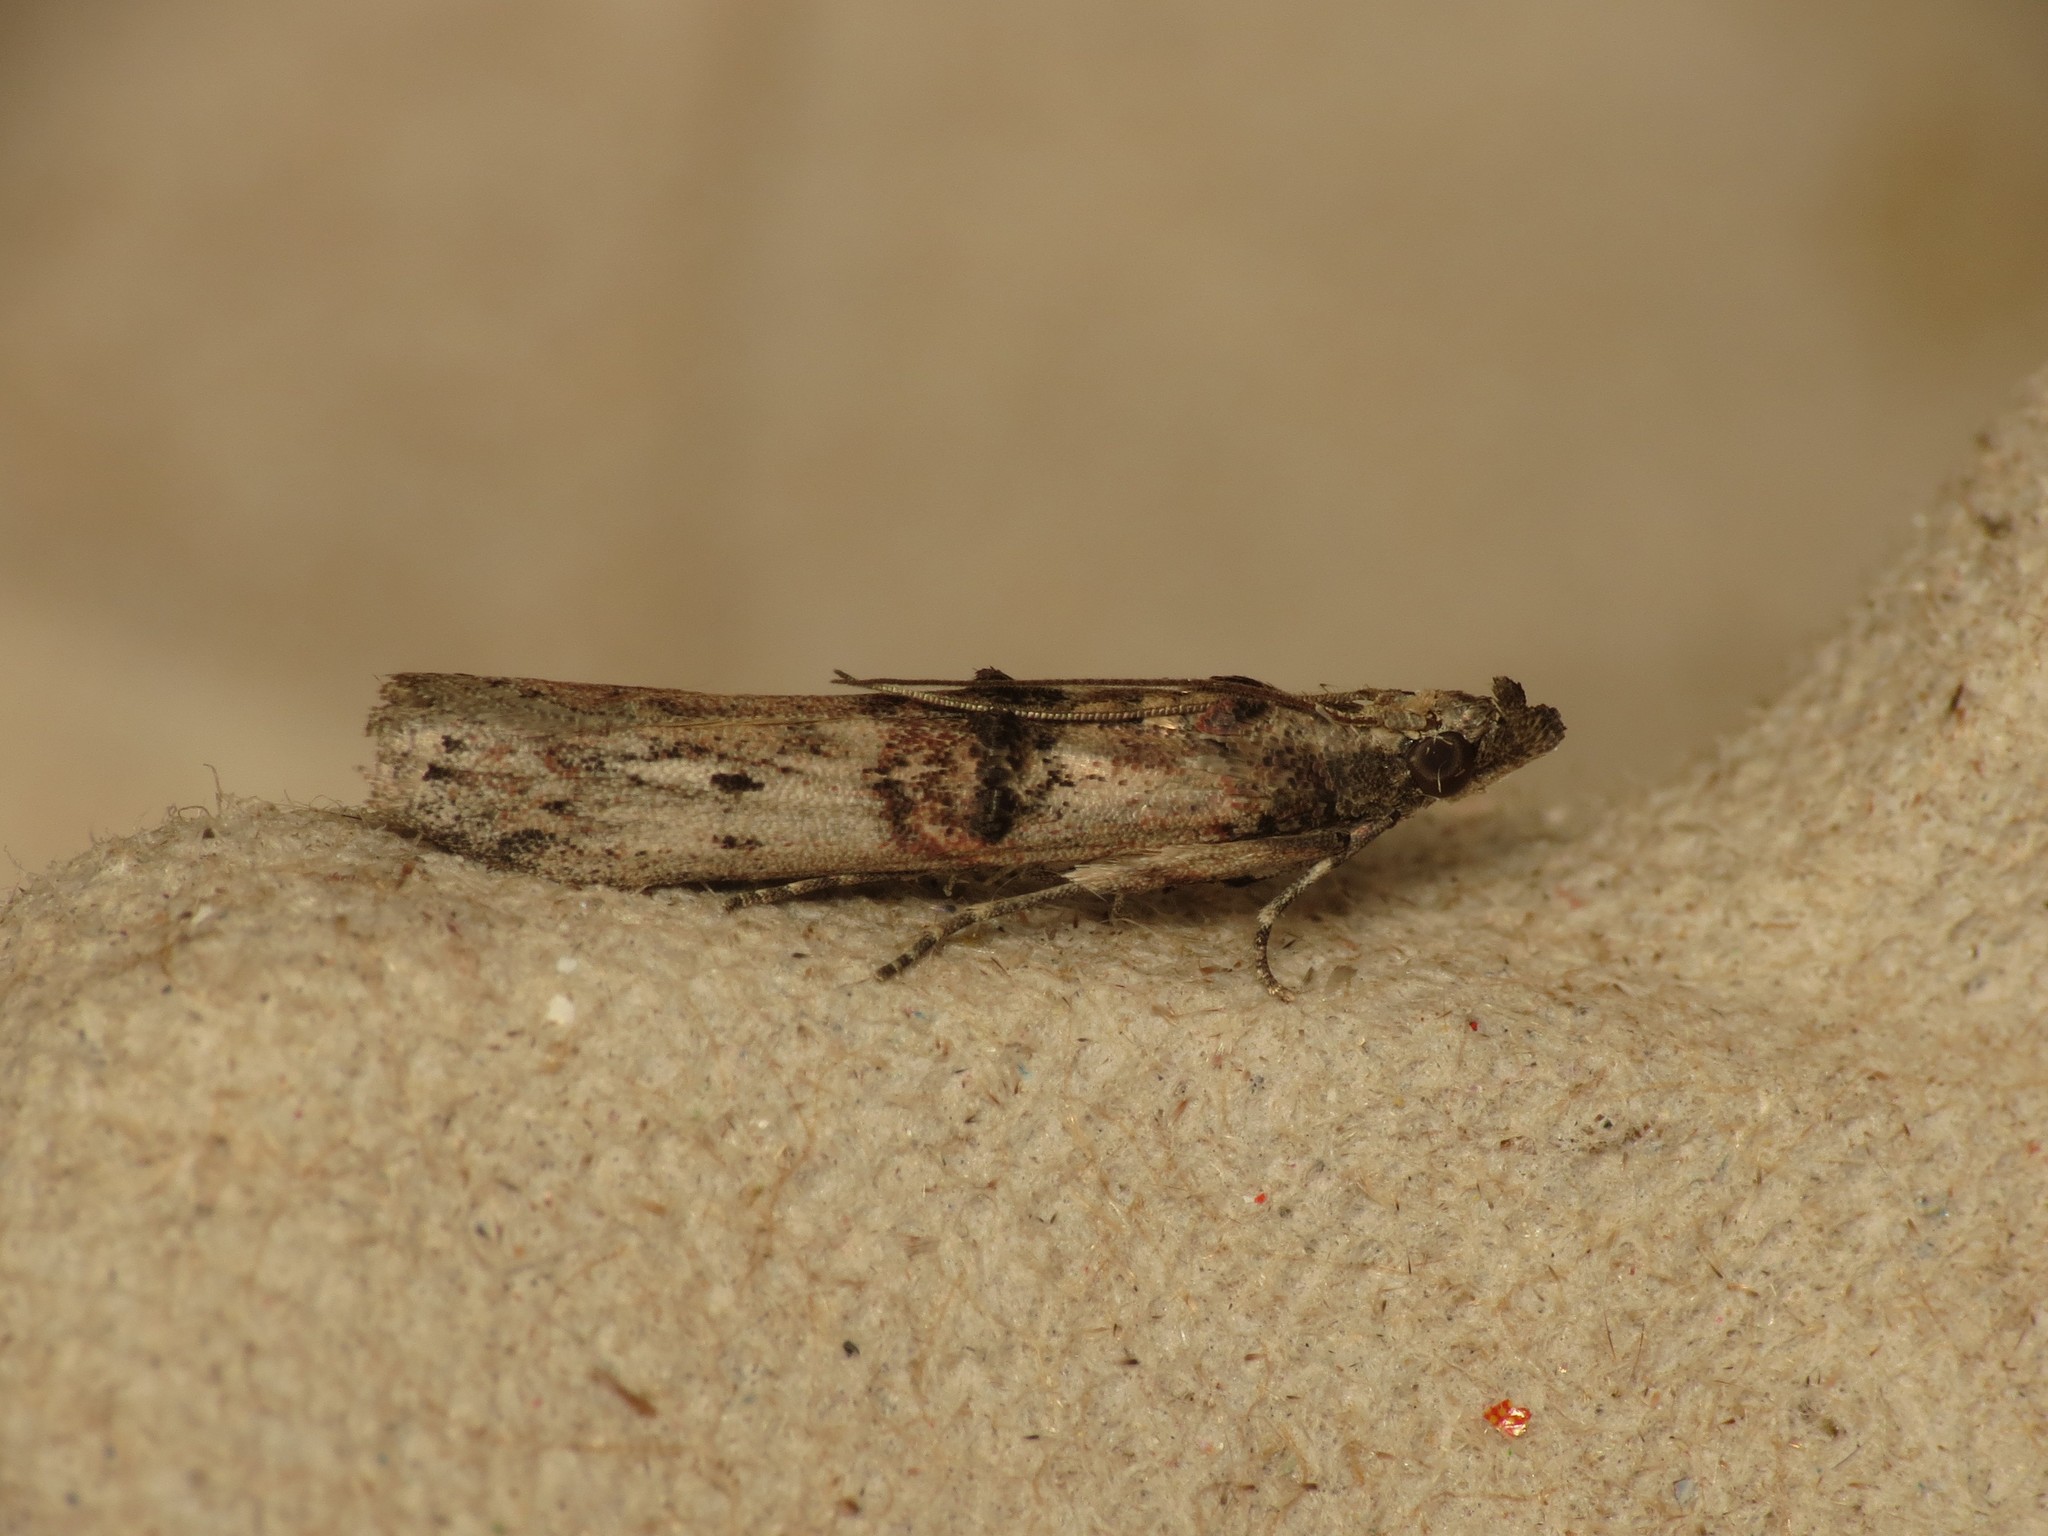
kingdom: Animalia
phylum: Arthropoda
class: Insecta
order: Lepidoptera
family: Pyralidae
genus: Nephopterix
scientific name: Nephopterix angustella
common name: Spindle knot-horn
